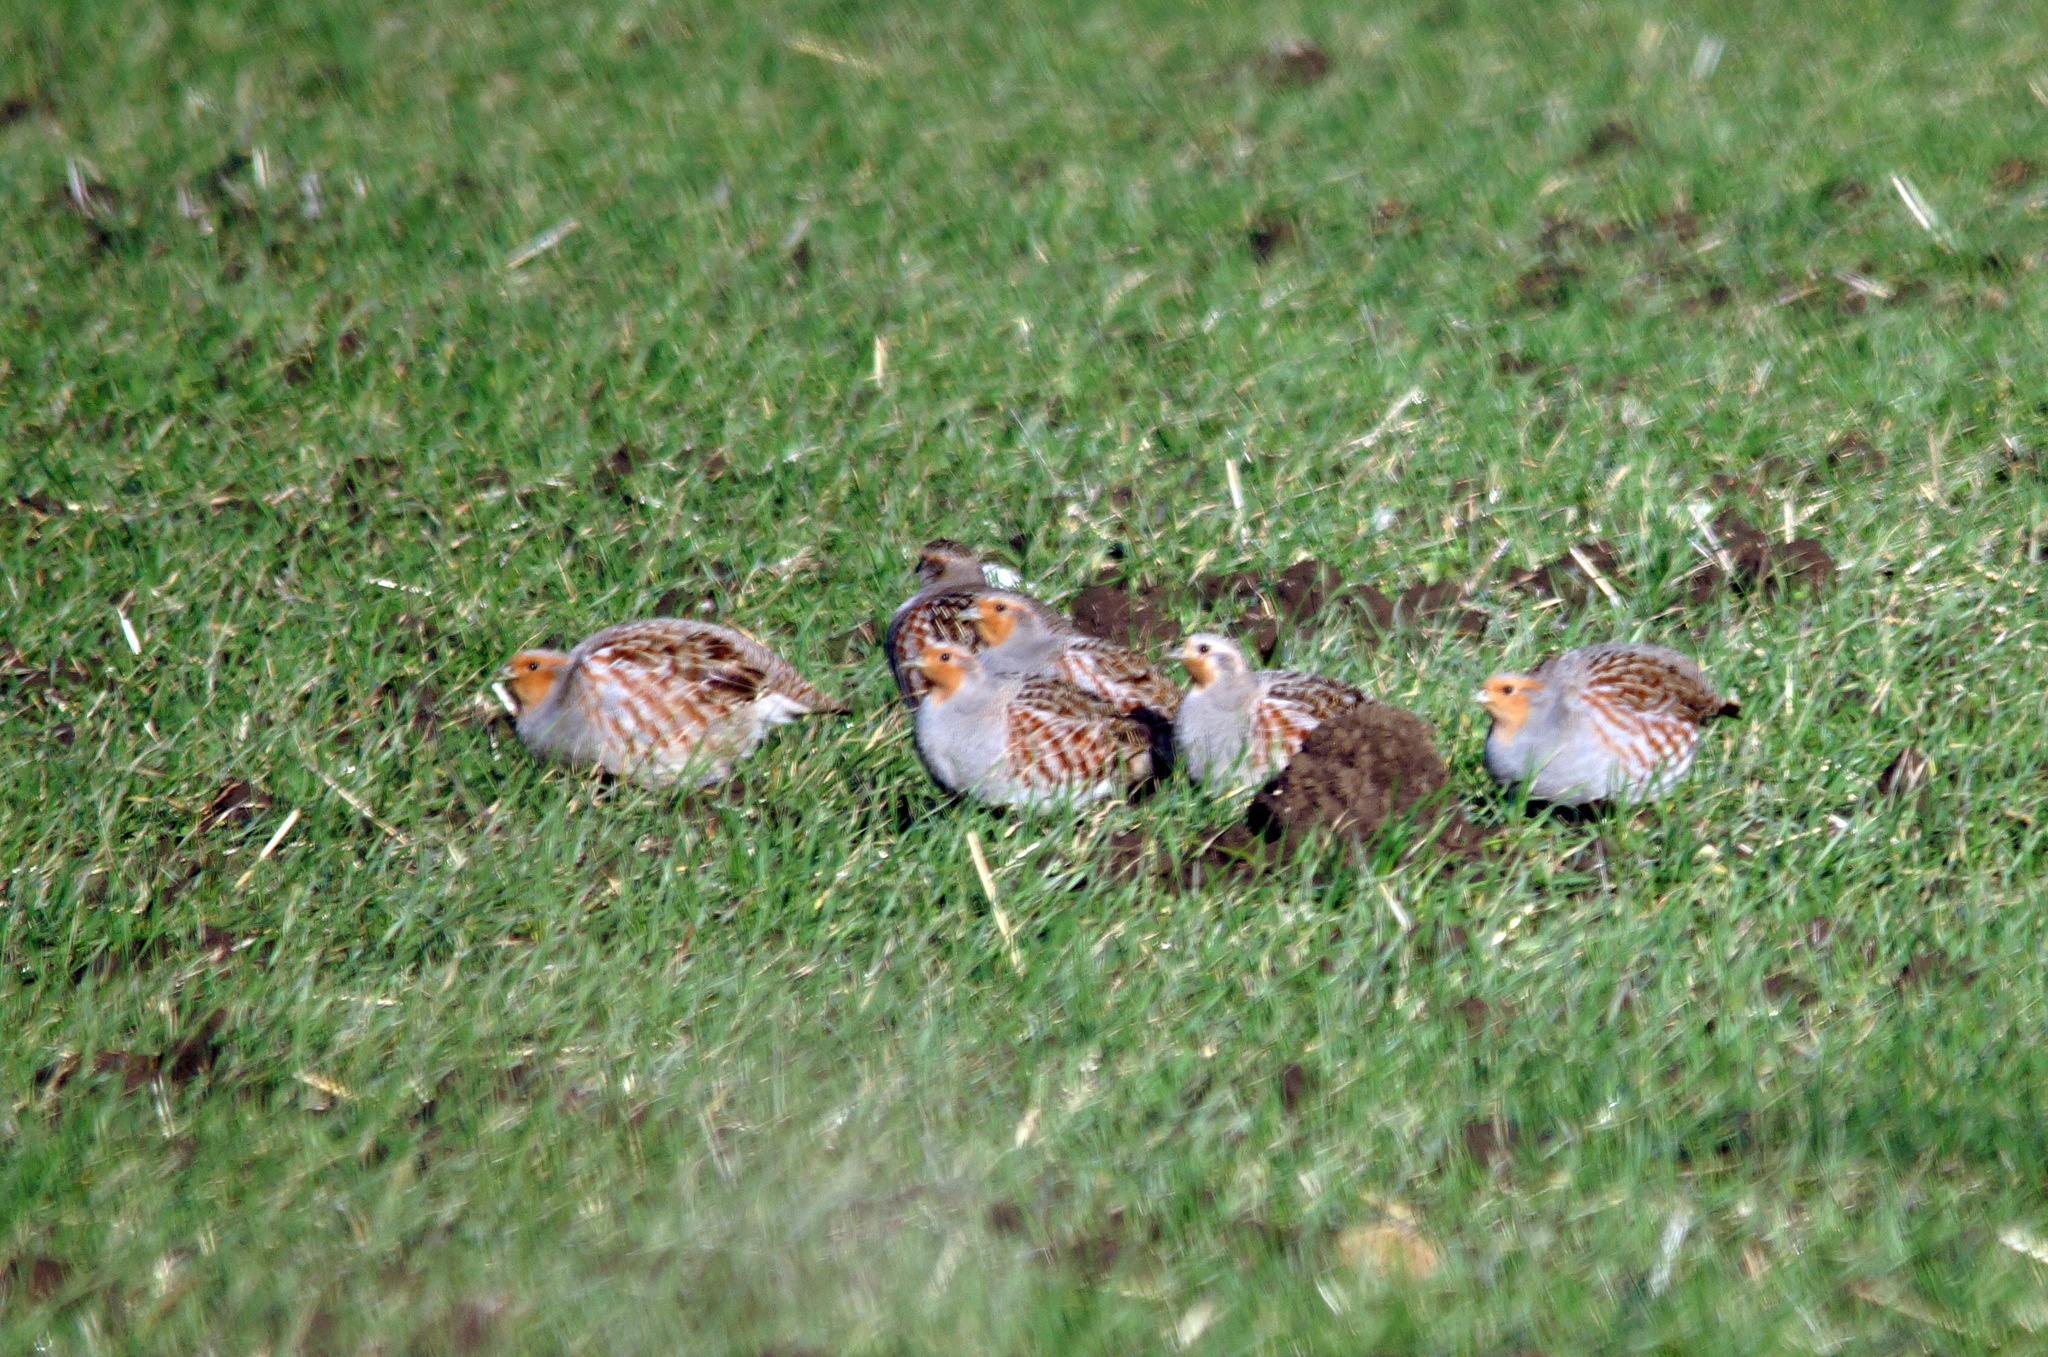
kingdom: Animalia
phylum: Chordata
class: Aves
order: Galliformes
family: Phasianidae
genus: Perdix
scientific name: Perdix perdix
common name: Grey partridge
